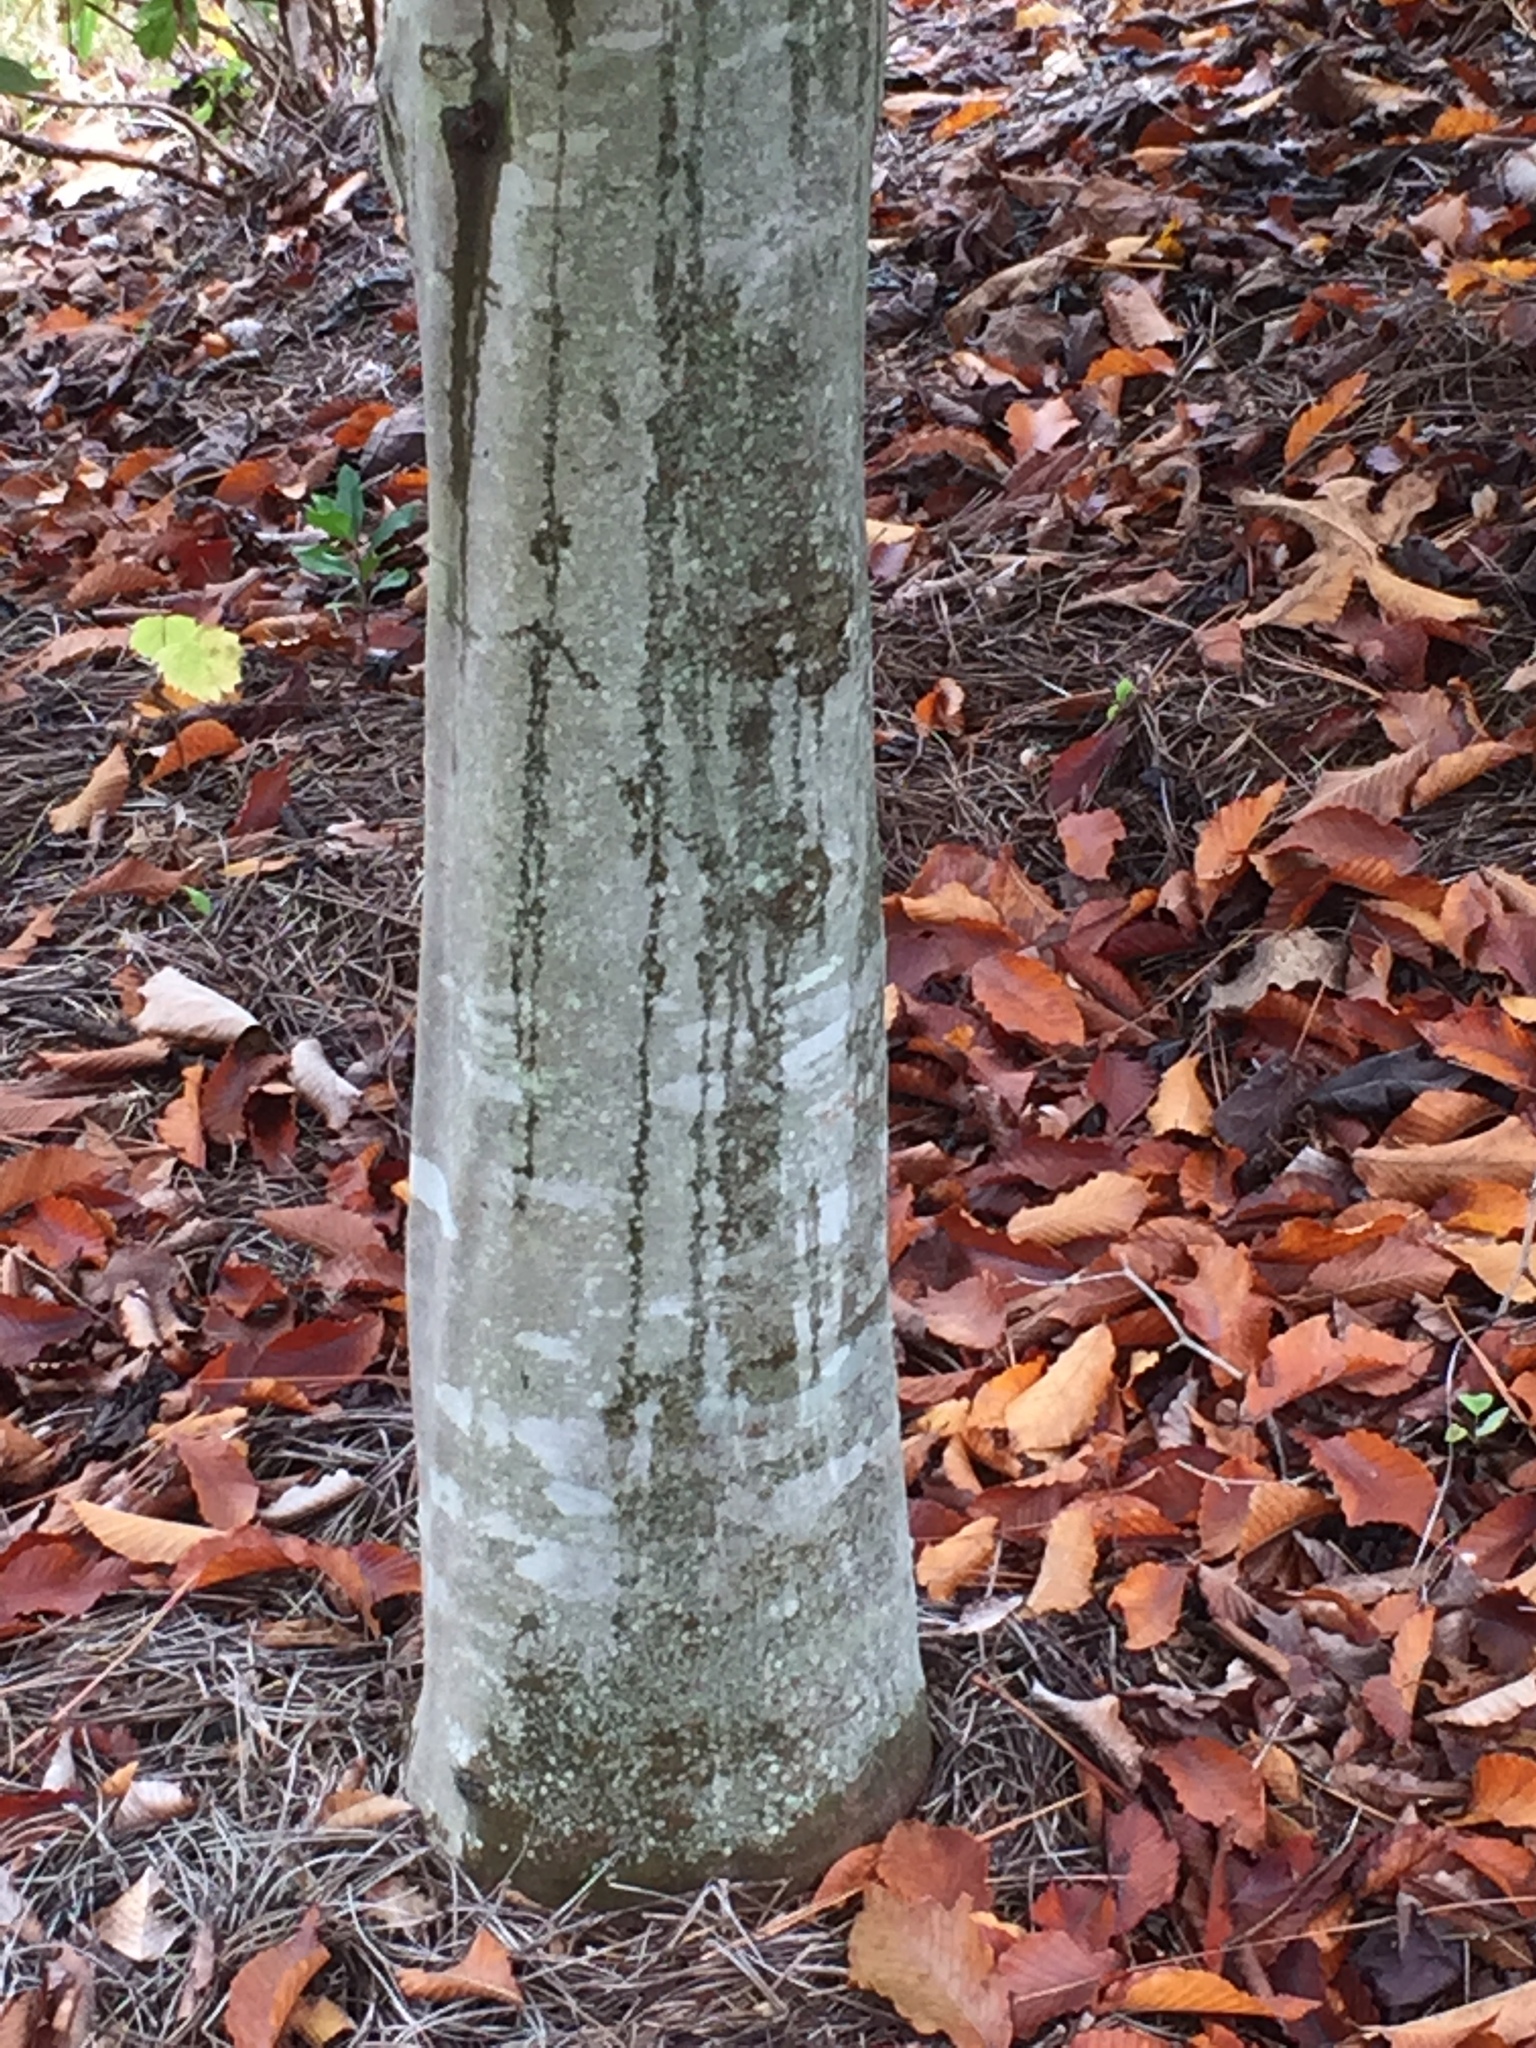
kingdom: Plantae
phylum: Tracheophyta
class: Magnoliopsida
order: Fagales
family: Fagaceae
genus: Fagus
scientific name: Fagus grandifolia
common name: American beech
